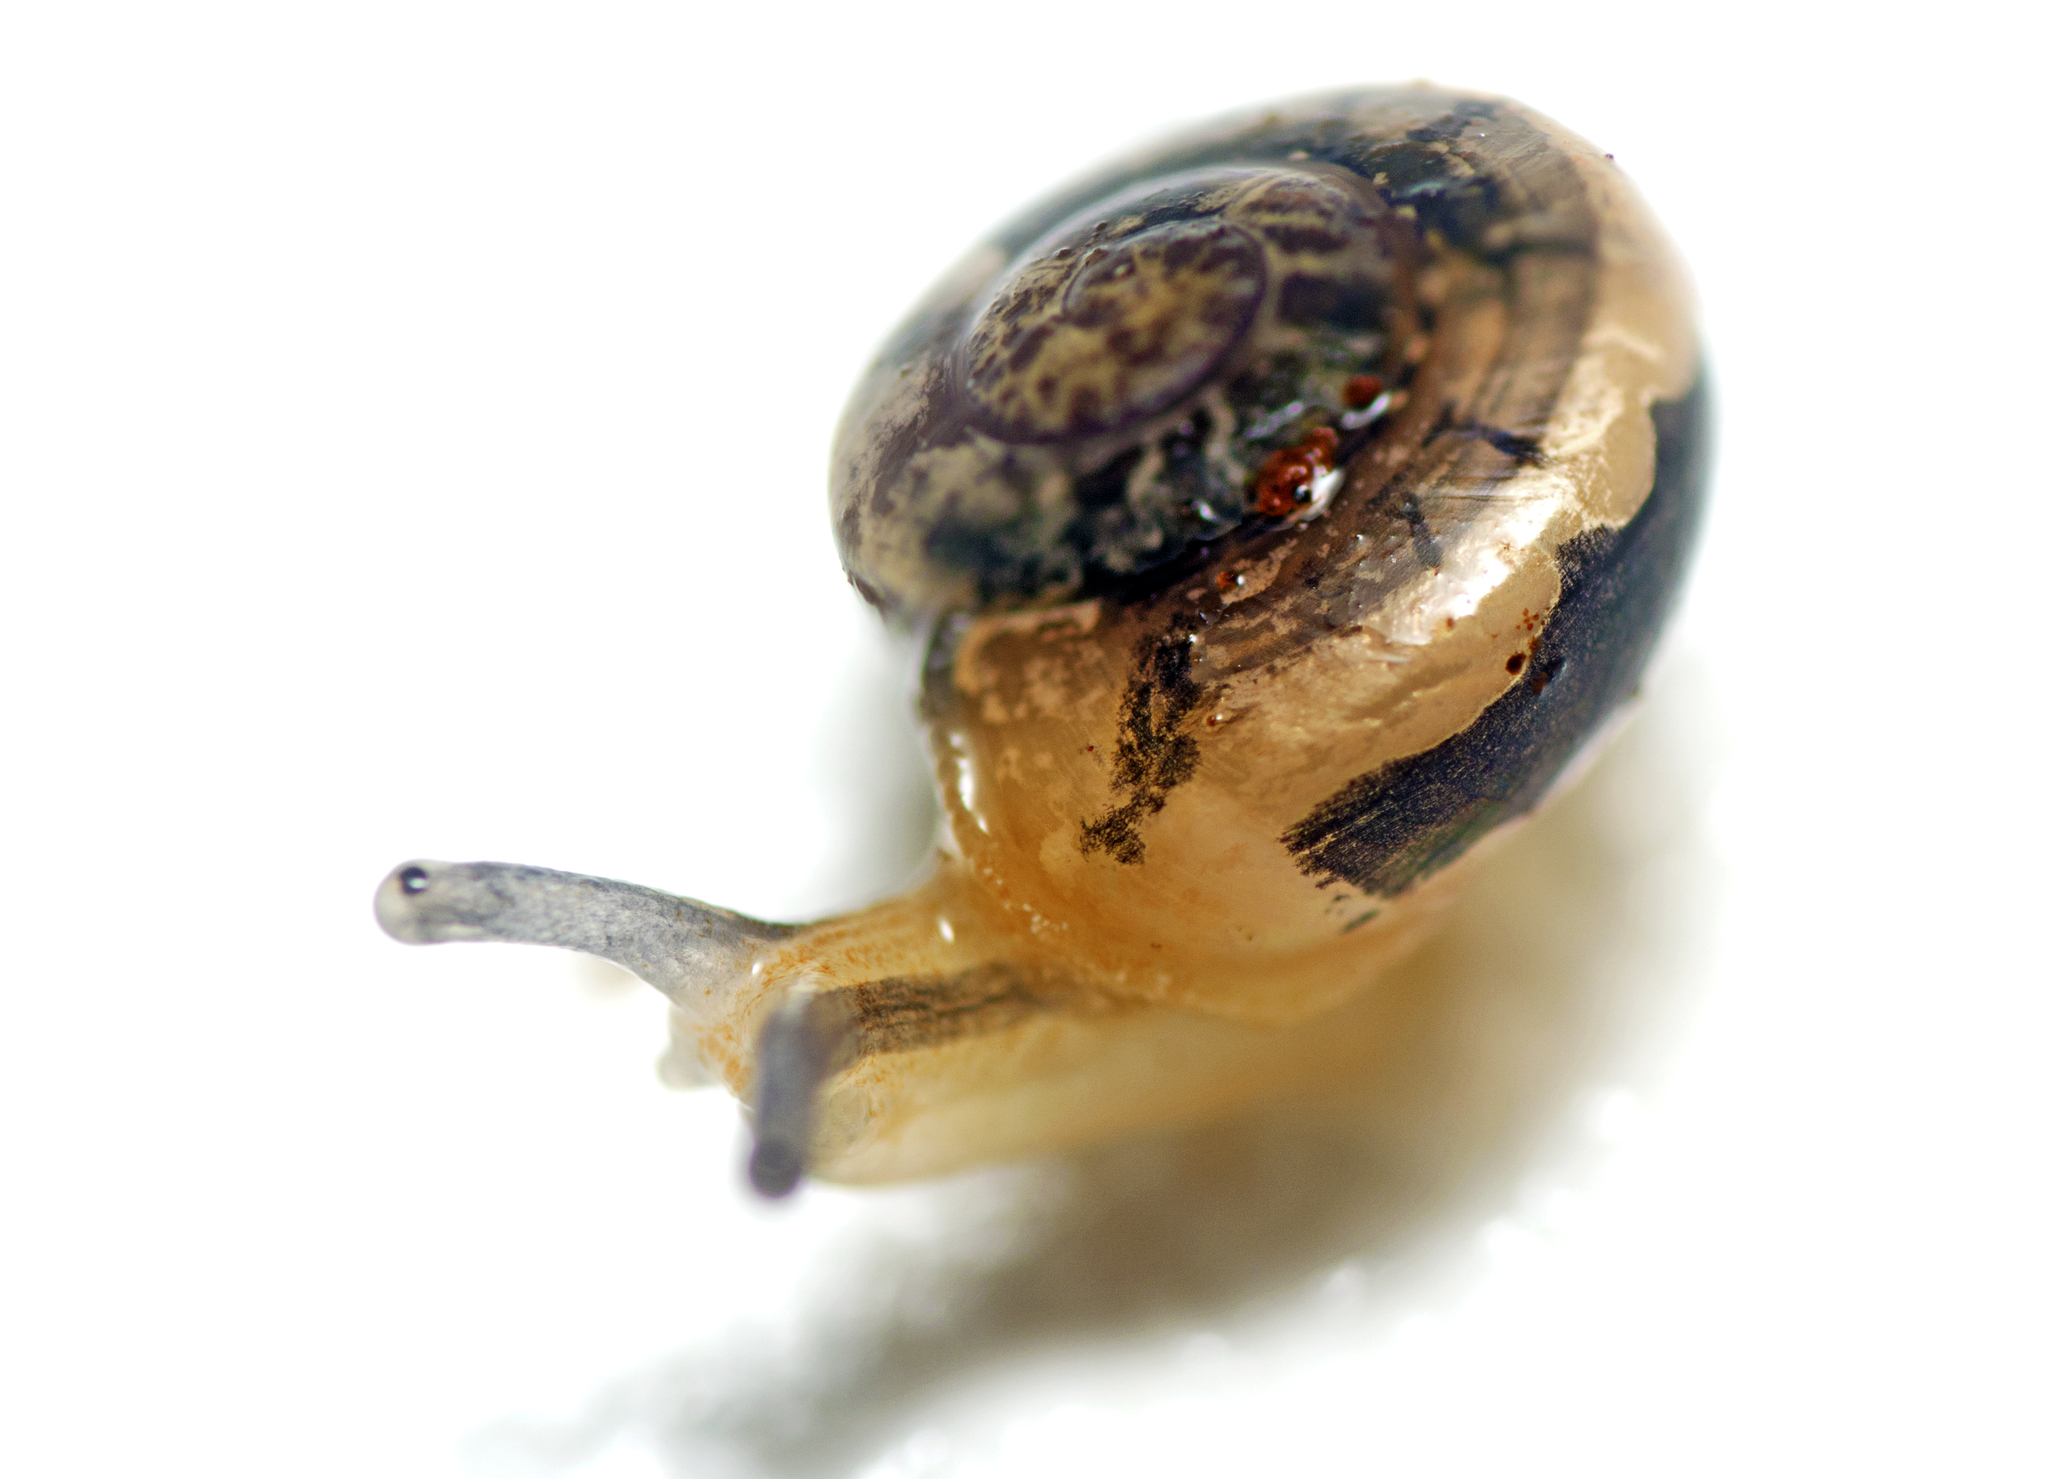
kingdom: Animalia
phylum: Mollusca
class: Gastropoda
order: Stylommatophora
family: Helicarionidae
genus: Nitor
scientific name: Nitor pudibundus
